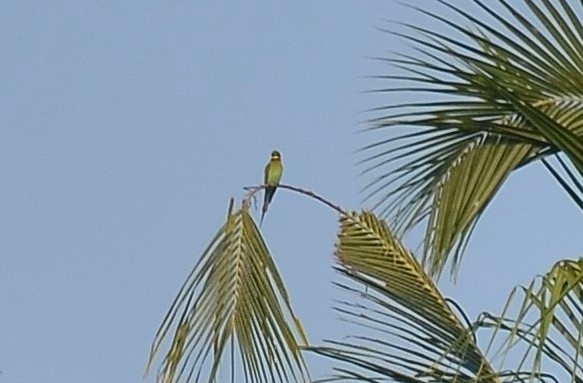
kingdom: Animalia
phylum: Chordata
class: Aves
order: Coraciiformes
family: Meropidae
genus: Merops
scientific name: Merops philippinus
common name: Blue-tailed bee-eater
